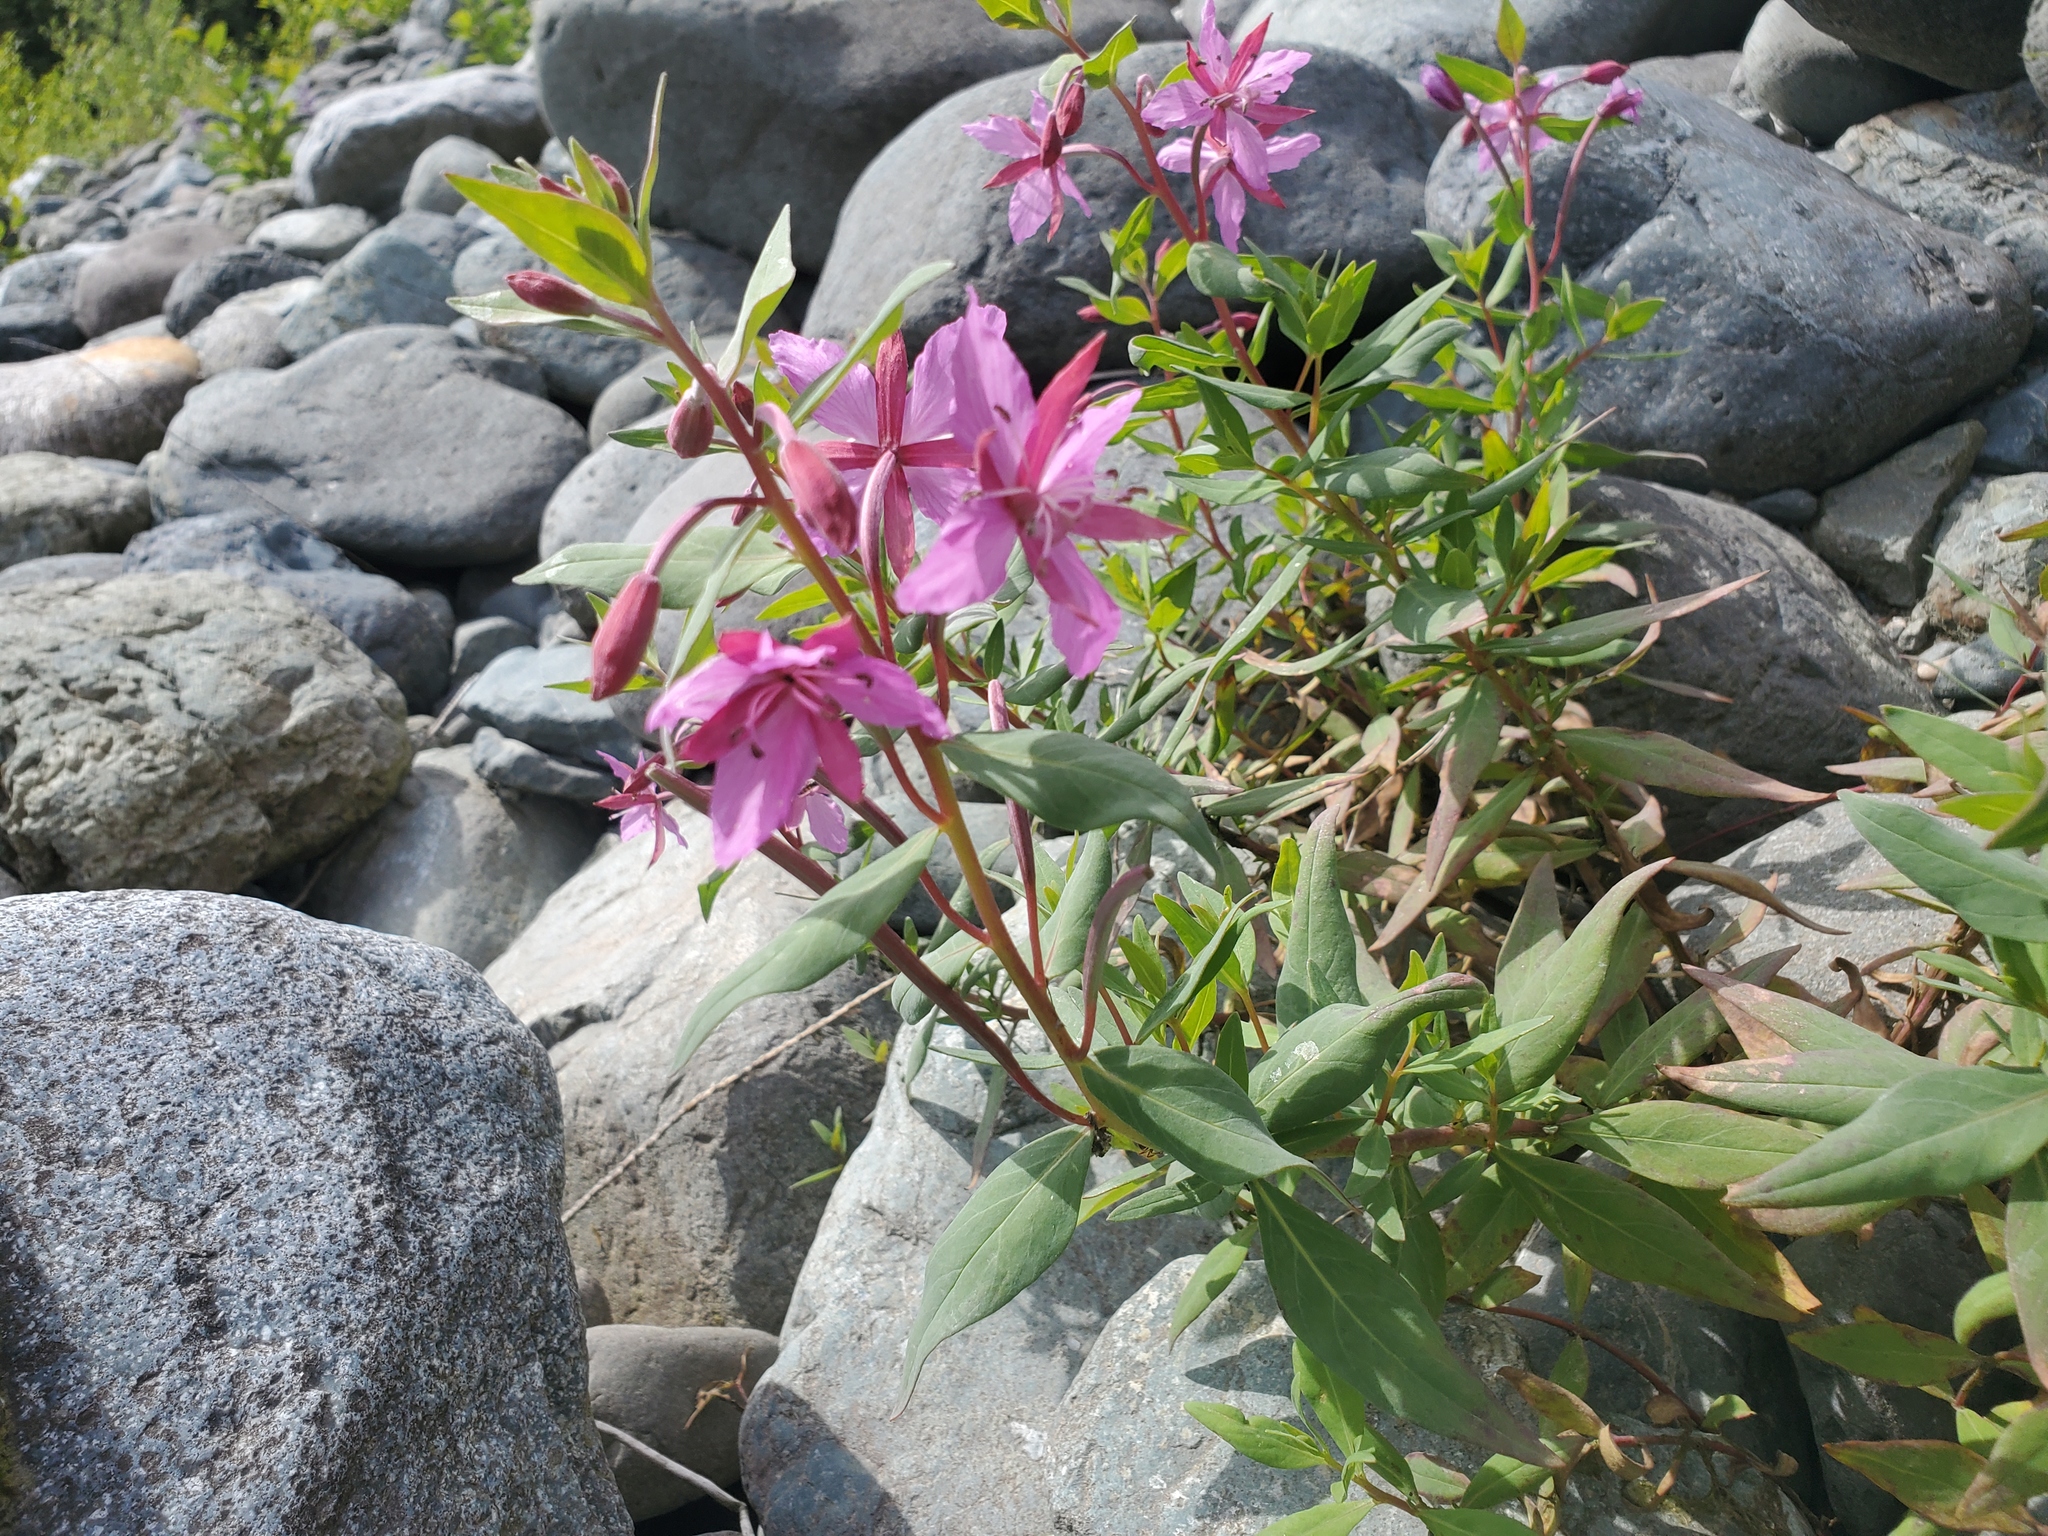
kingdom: Plantae
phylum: Tracheophyta
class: Magnoliopsida
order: Myrtales
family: Onagraceae
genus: Chamaenerion
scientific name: Chamaenerion latifolium
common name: Dwarf fireweed
